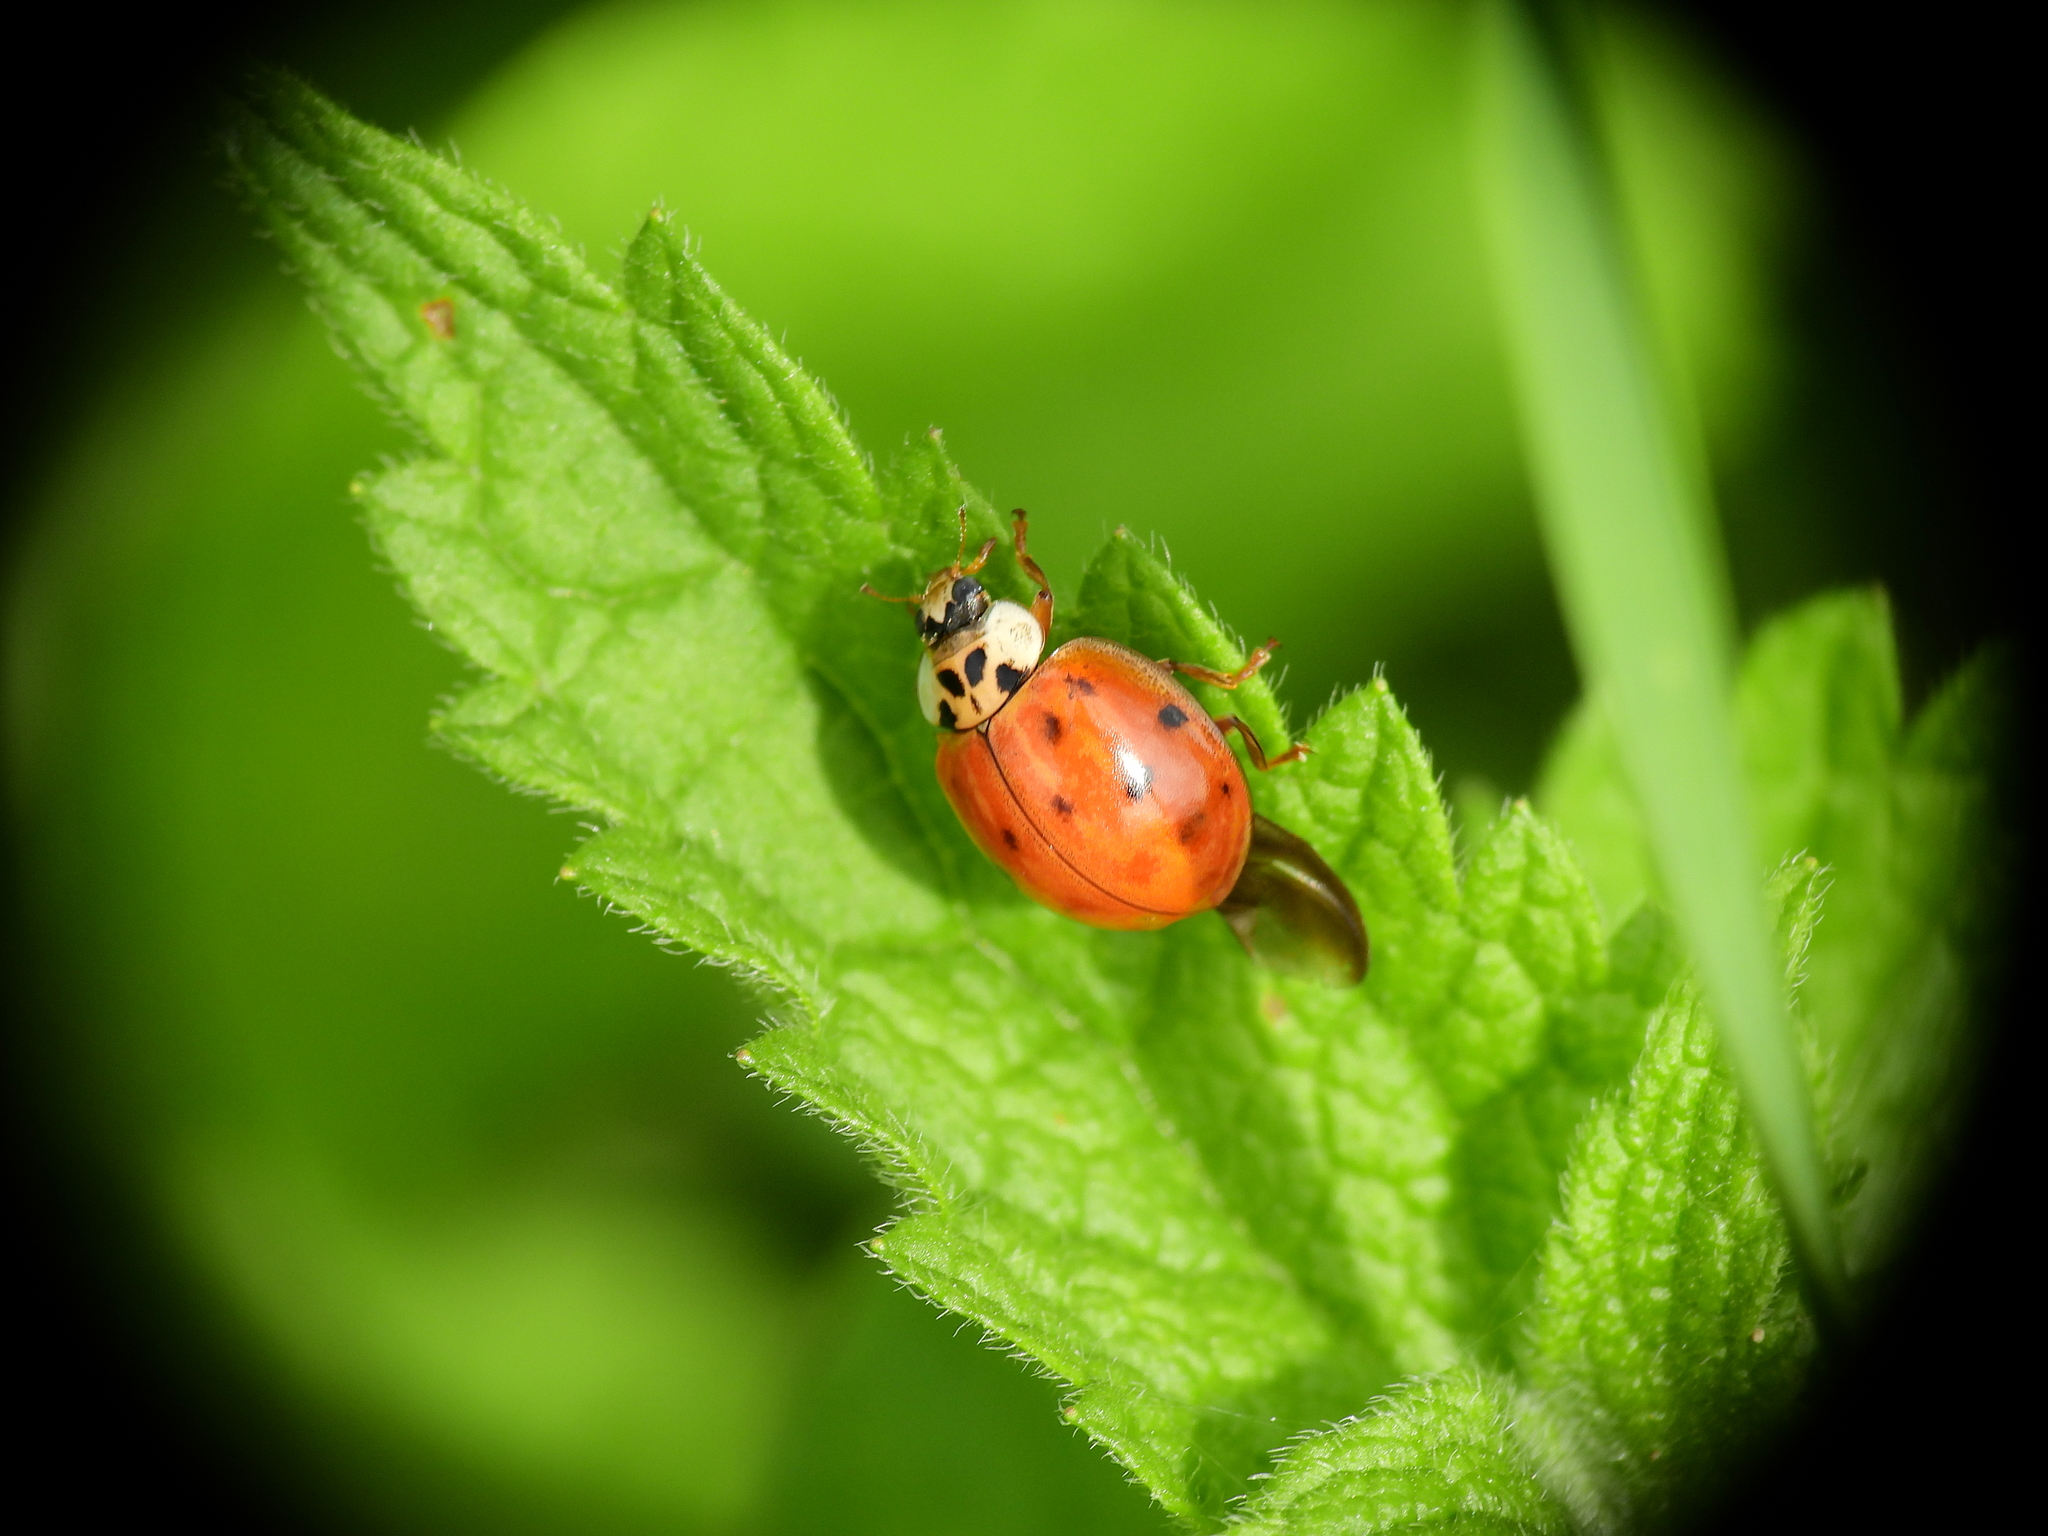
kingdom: Animalia
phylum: Arthropoda
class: Insecta
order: Coleoptera
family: Coccinellidae
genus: Harmonia
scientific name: Harmonia axyridis
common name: Harlequin ladybird
